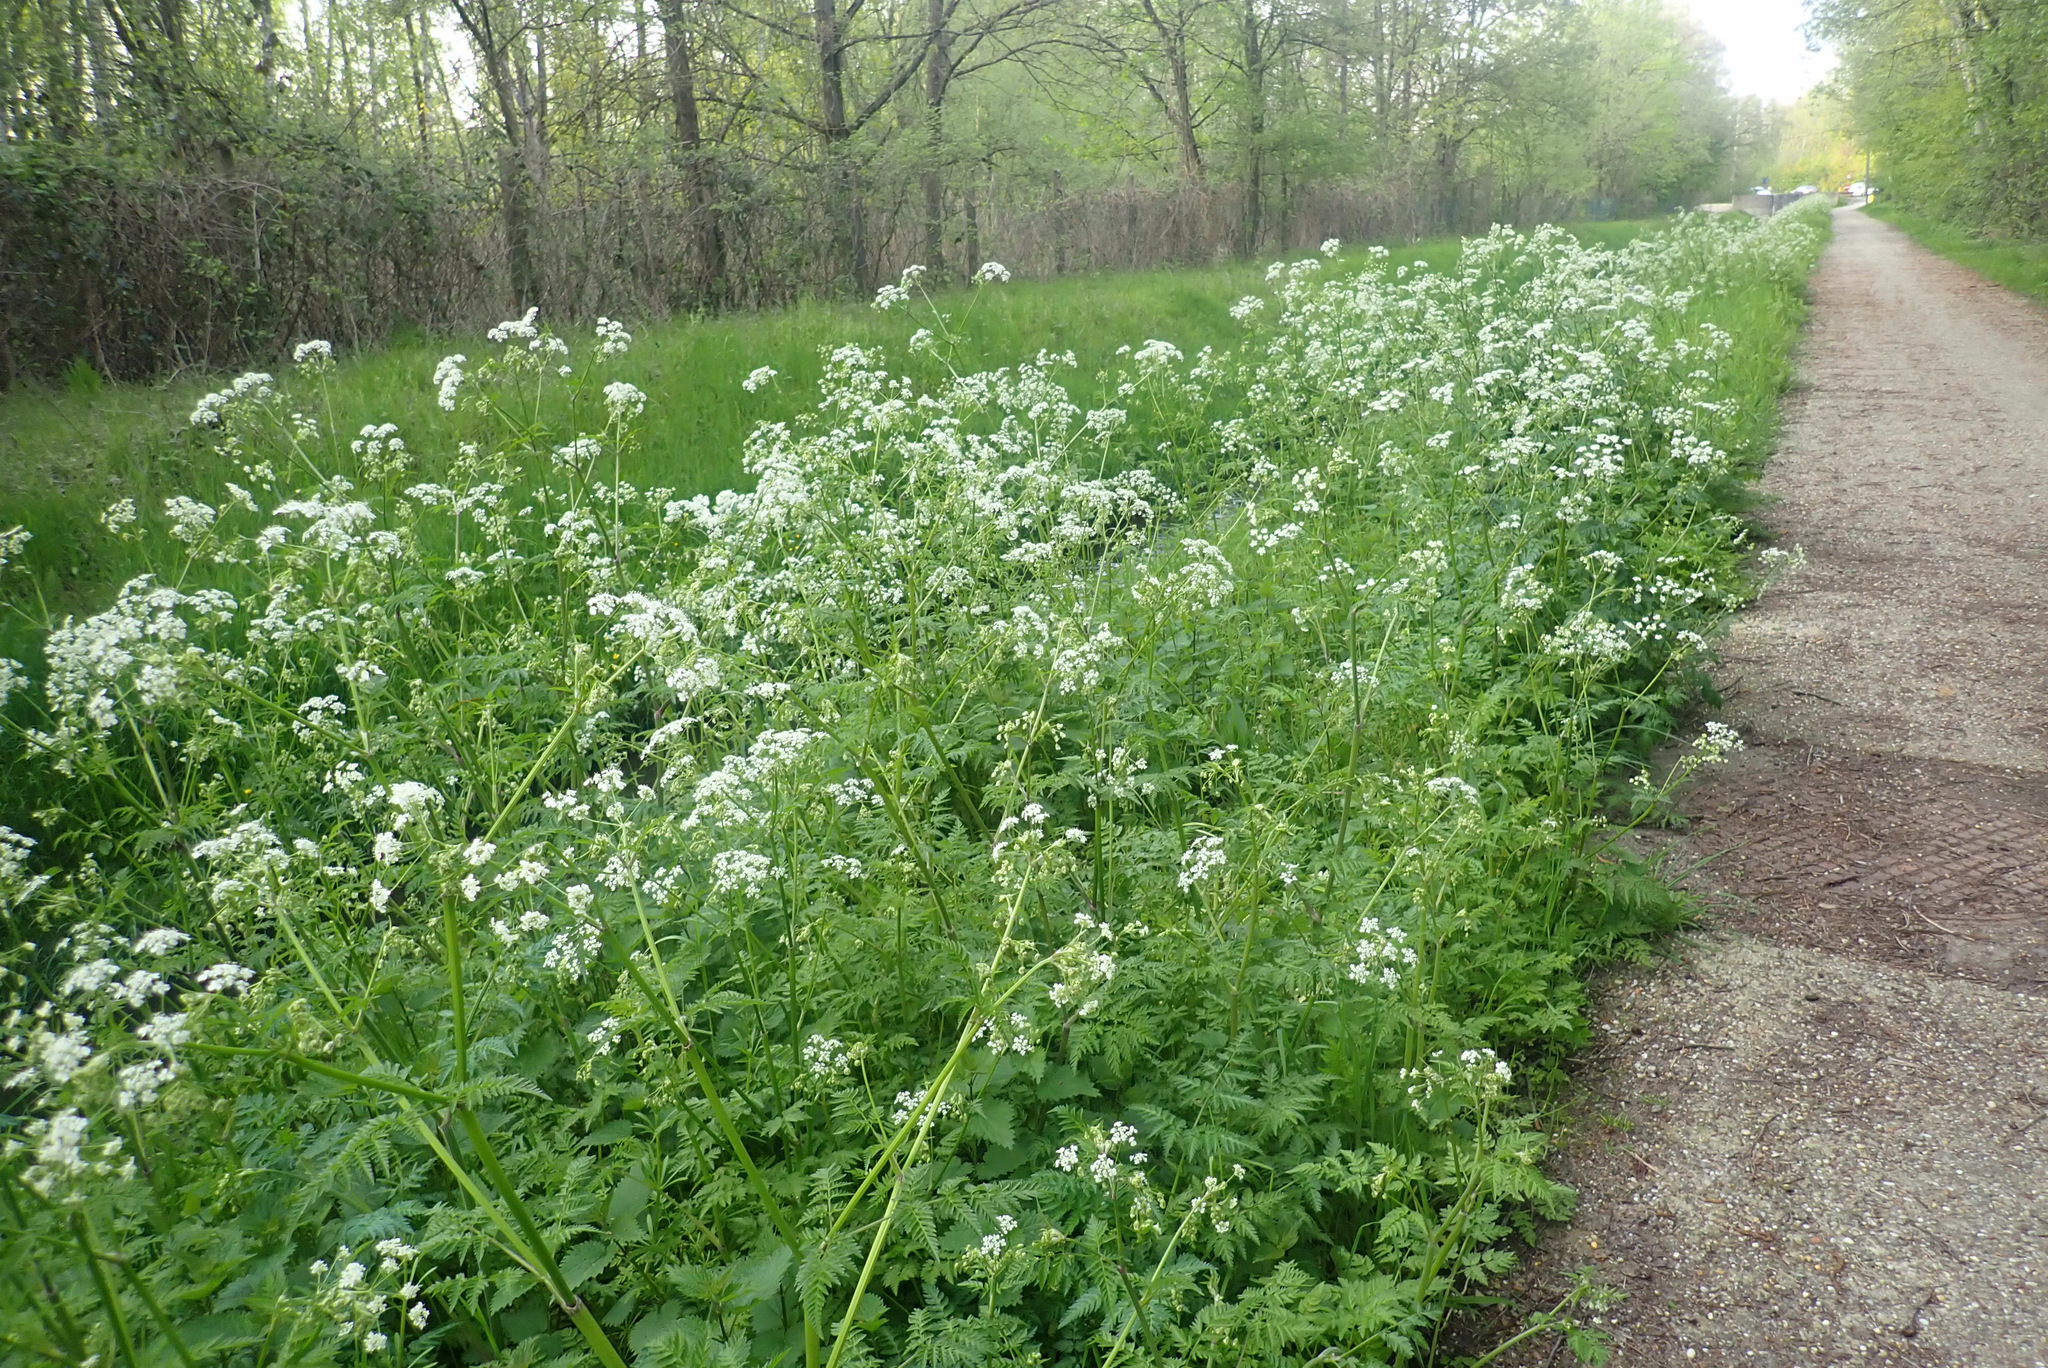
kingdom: Plantae
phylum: Tracheophyta
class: Magnoliopsida
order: Apiales
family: Apiaceae
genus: Anthriscus
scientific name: Anthriscus sylvestris
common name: Cow parsley
